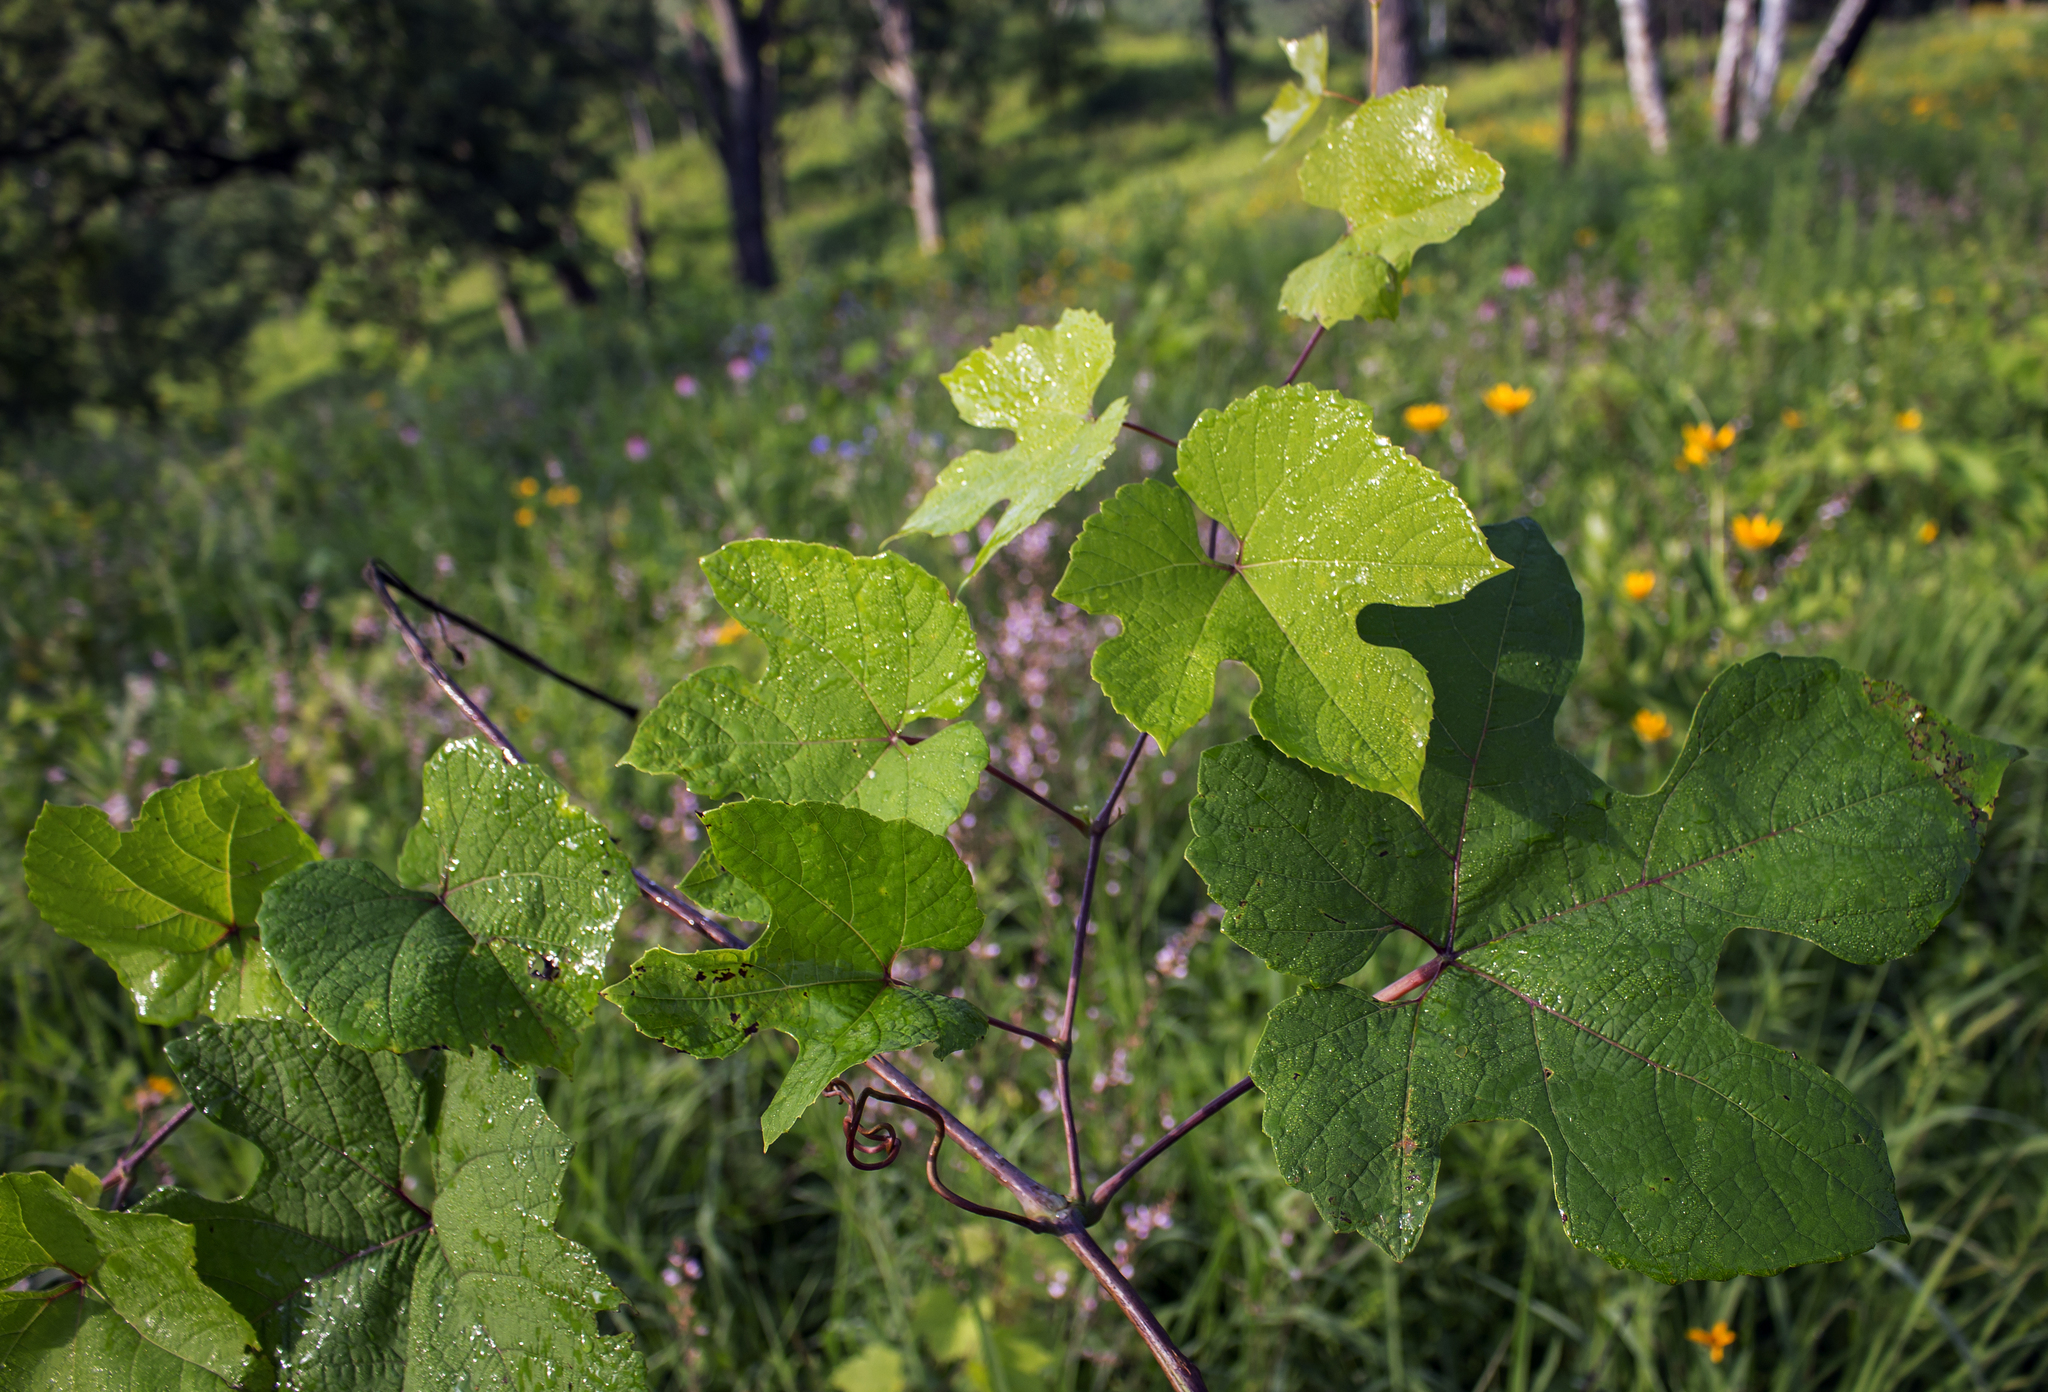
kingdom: Plantae
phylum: Tracheophyta
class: Magnoliopsida
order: Vitales
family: Vitaceae
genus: Vitis
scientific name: Vitis aestivalis
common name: Pigeon grape
